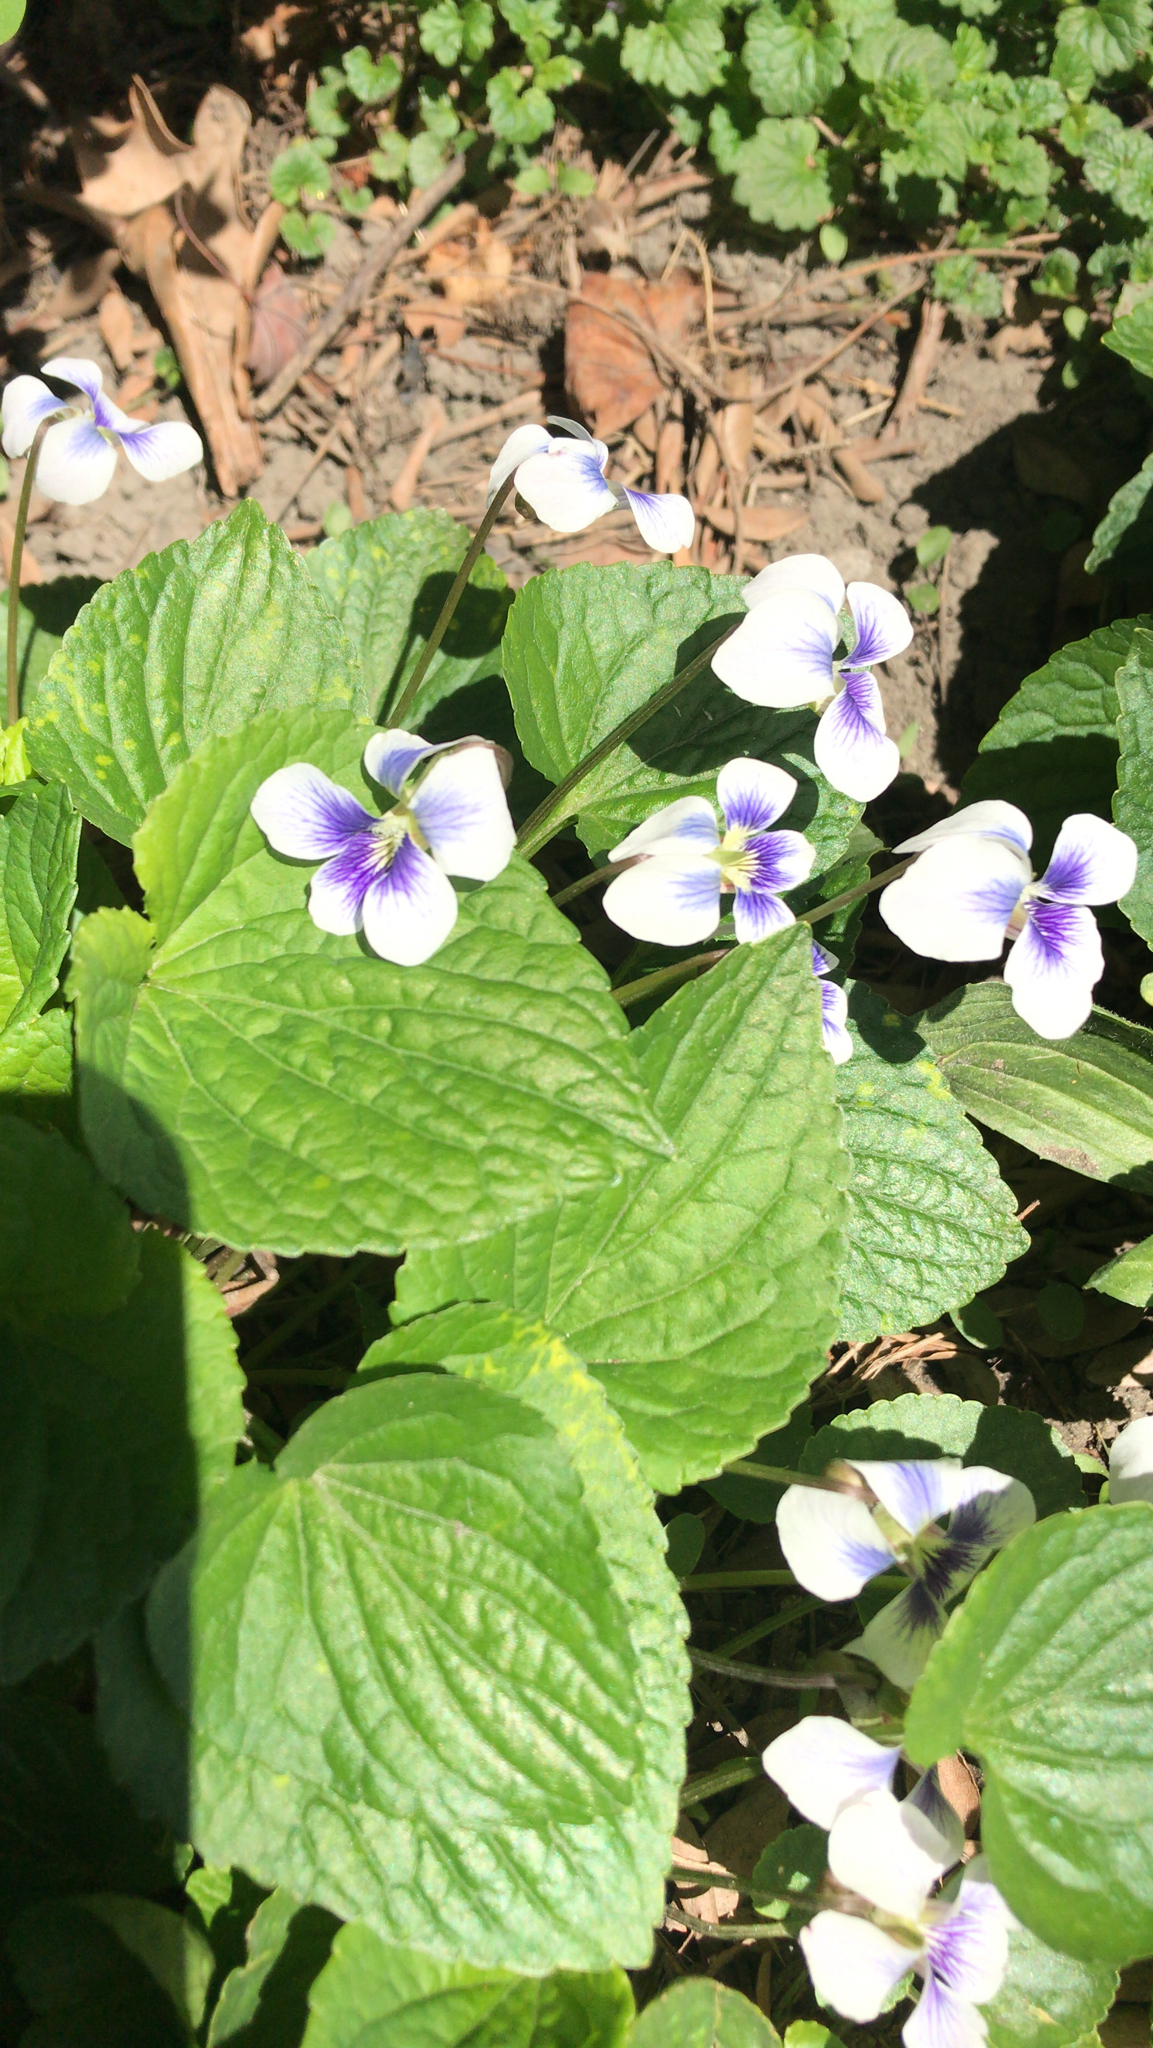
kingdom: Plantae
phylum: Tracheophyta
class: Magnoliopsida
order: Malpighiales
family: Violaceae
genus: Viola
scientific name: Viola sororia
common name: Dooryard violet
